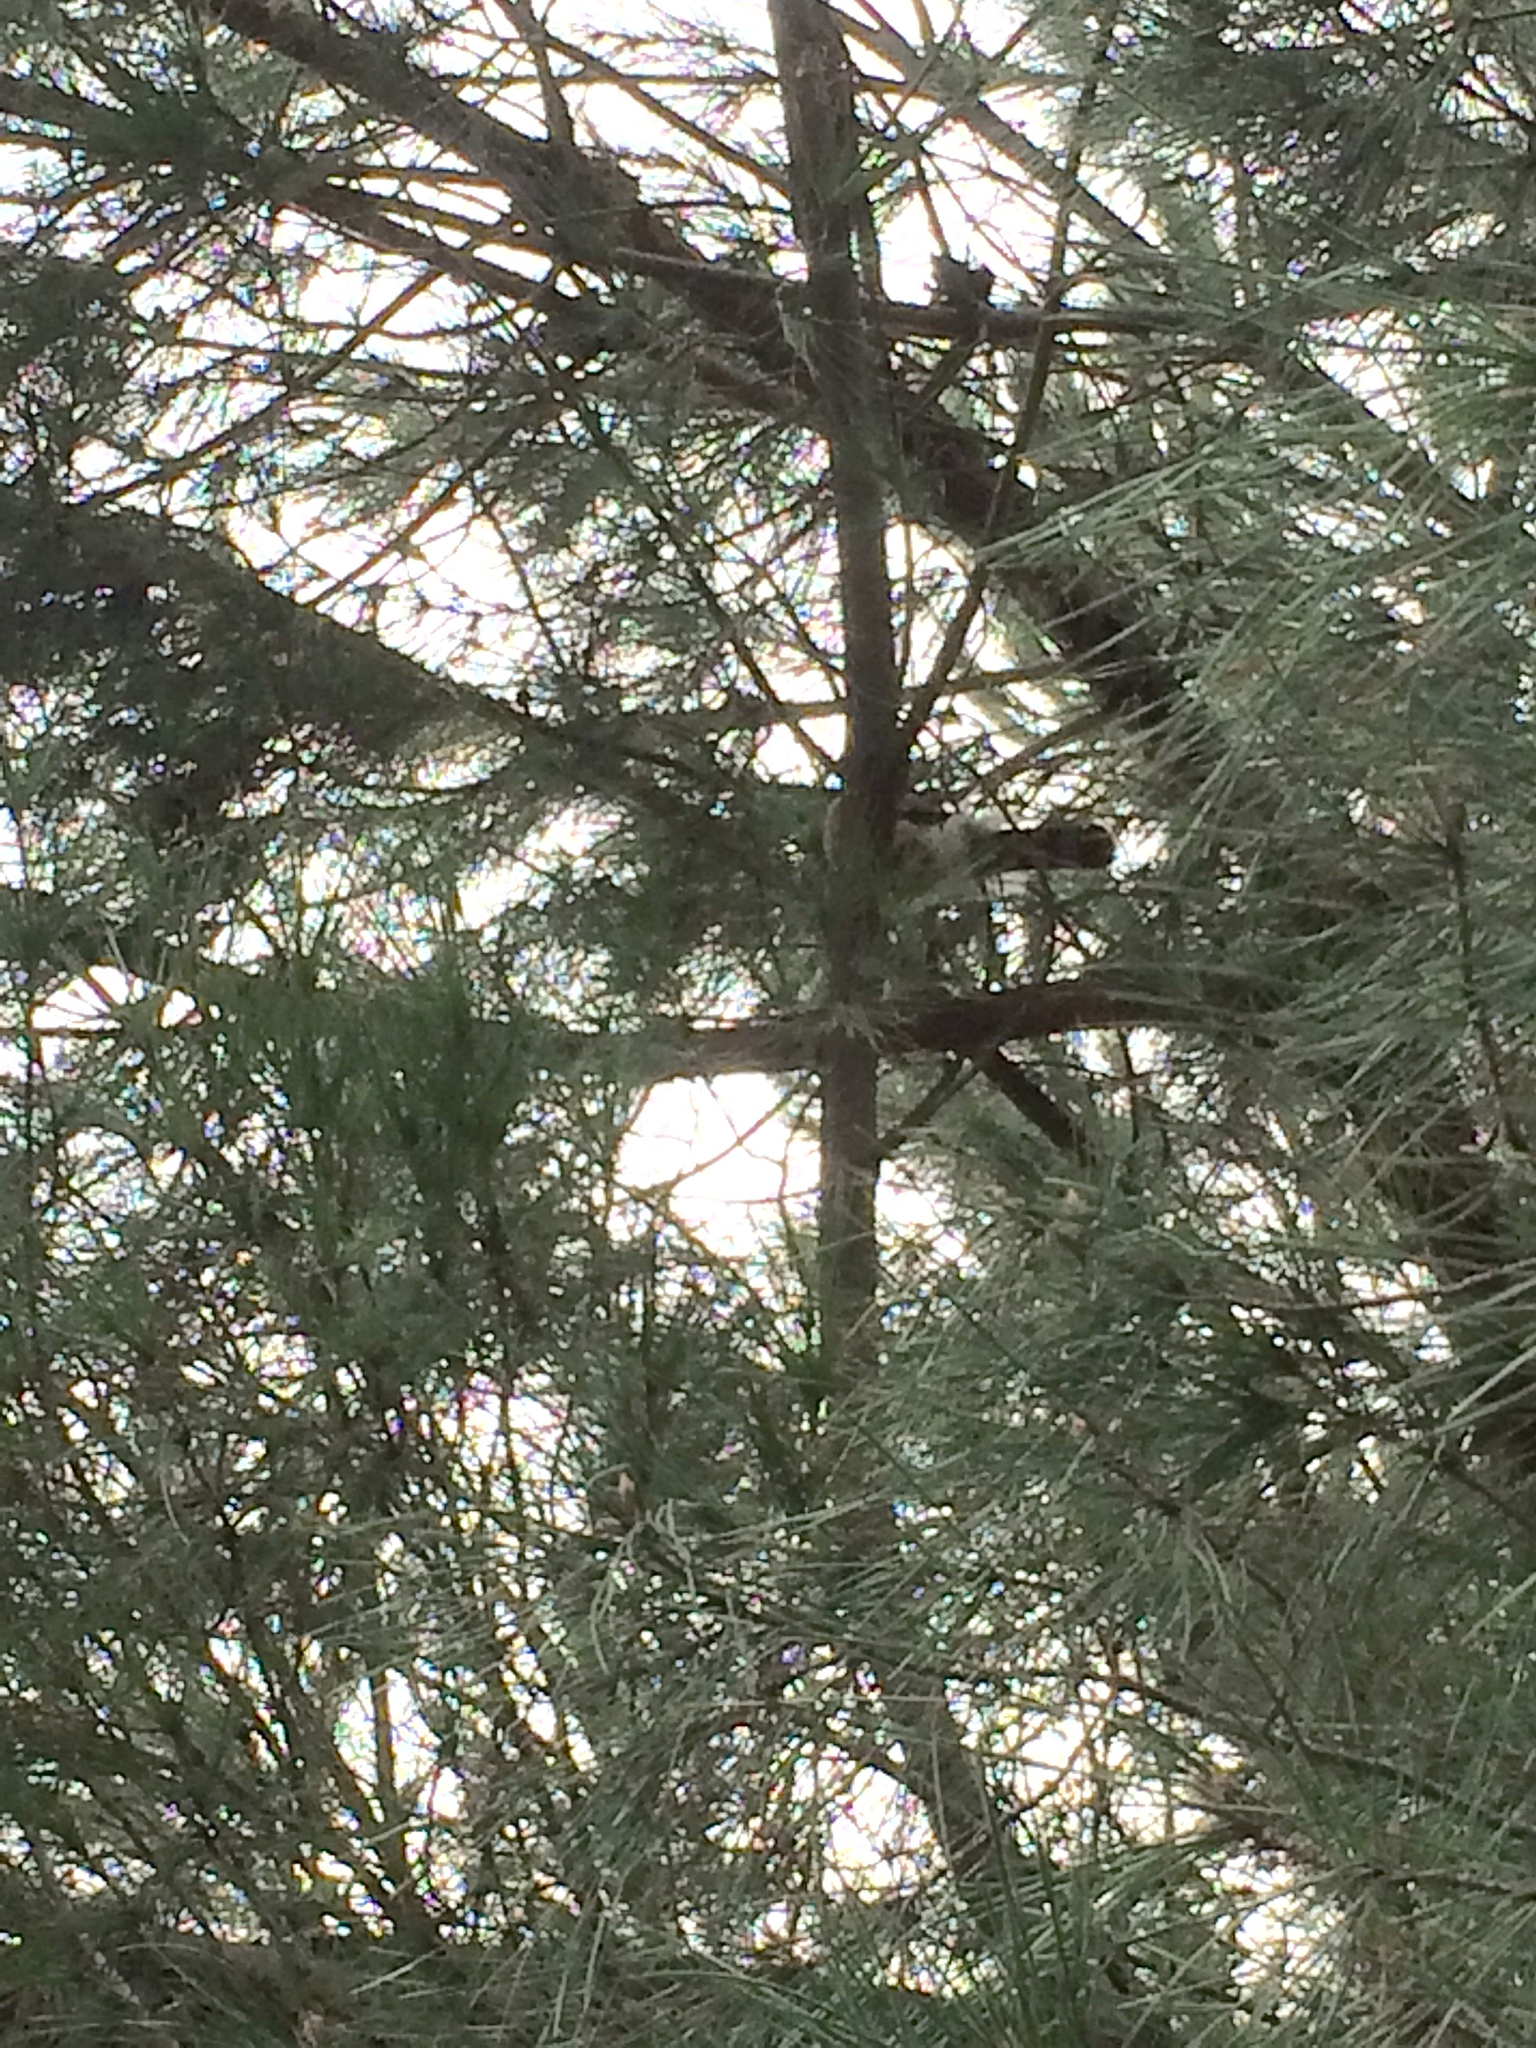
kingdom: Animalia
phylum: Chordata
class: Aves
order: Accipitriformes
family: Accipitridae
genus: Accipiter
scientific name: Accipiter cooperii
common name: Cooper's hawk
